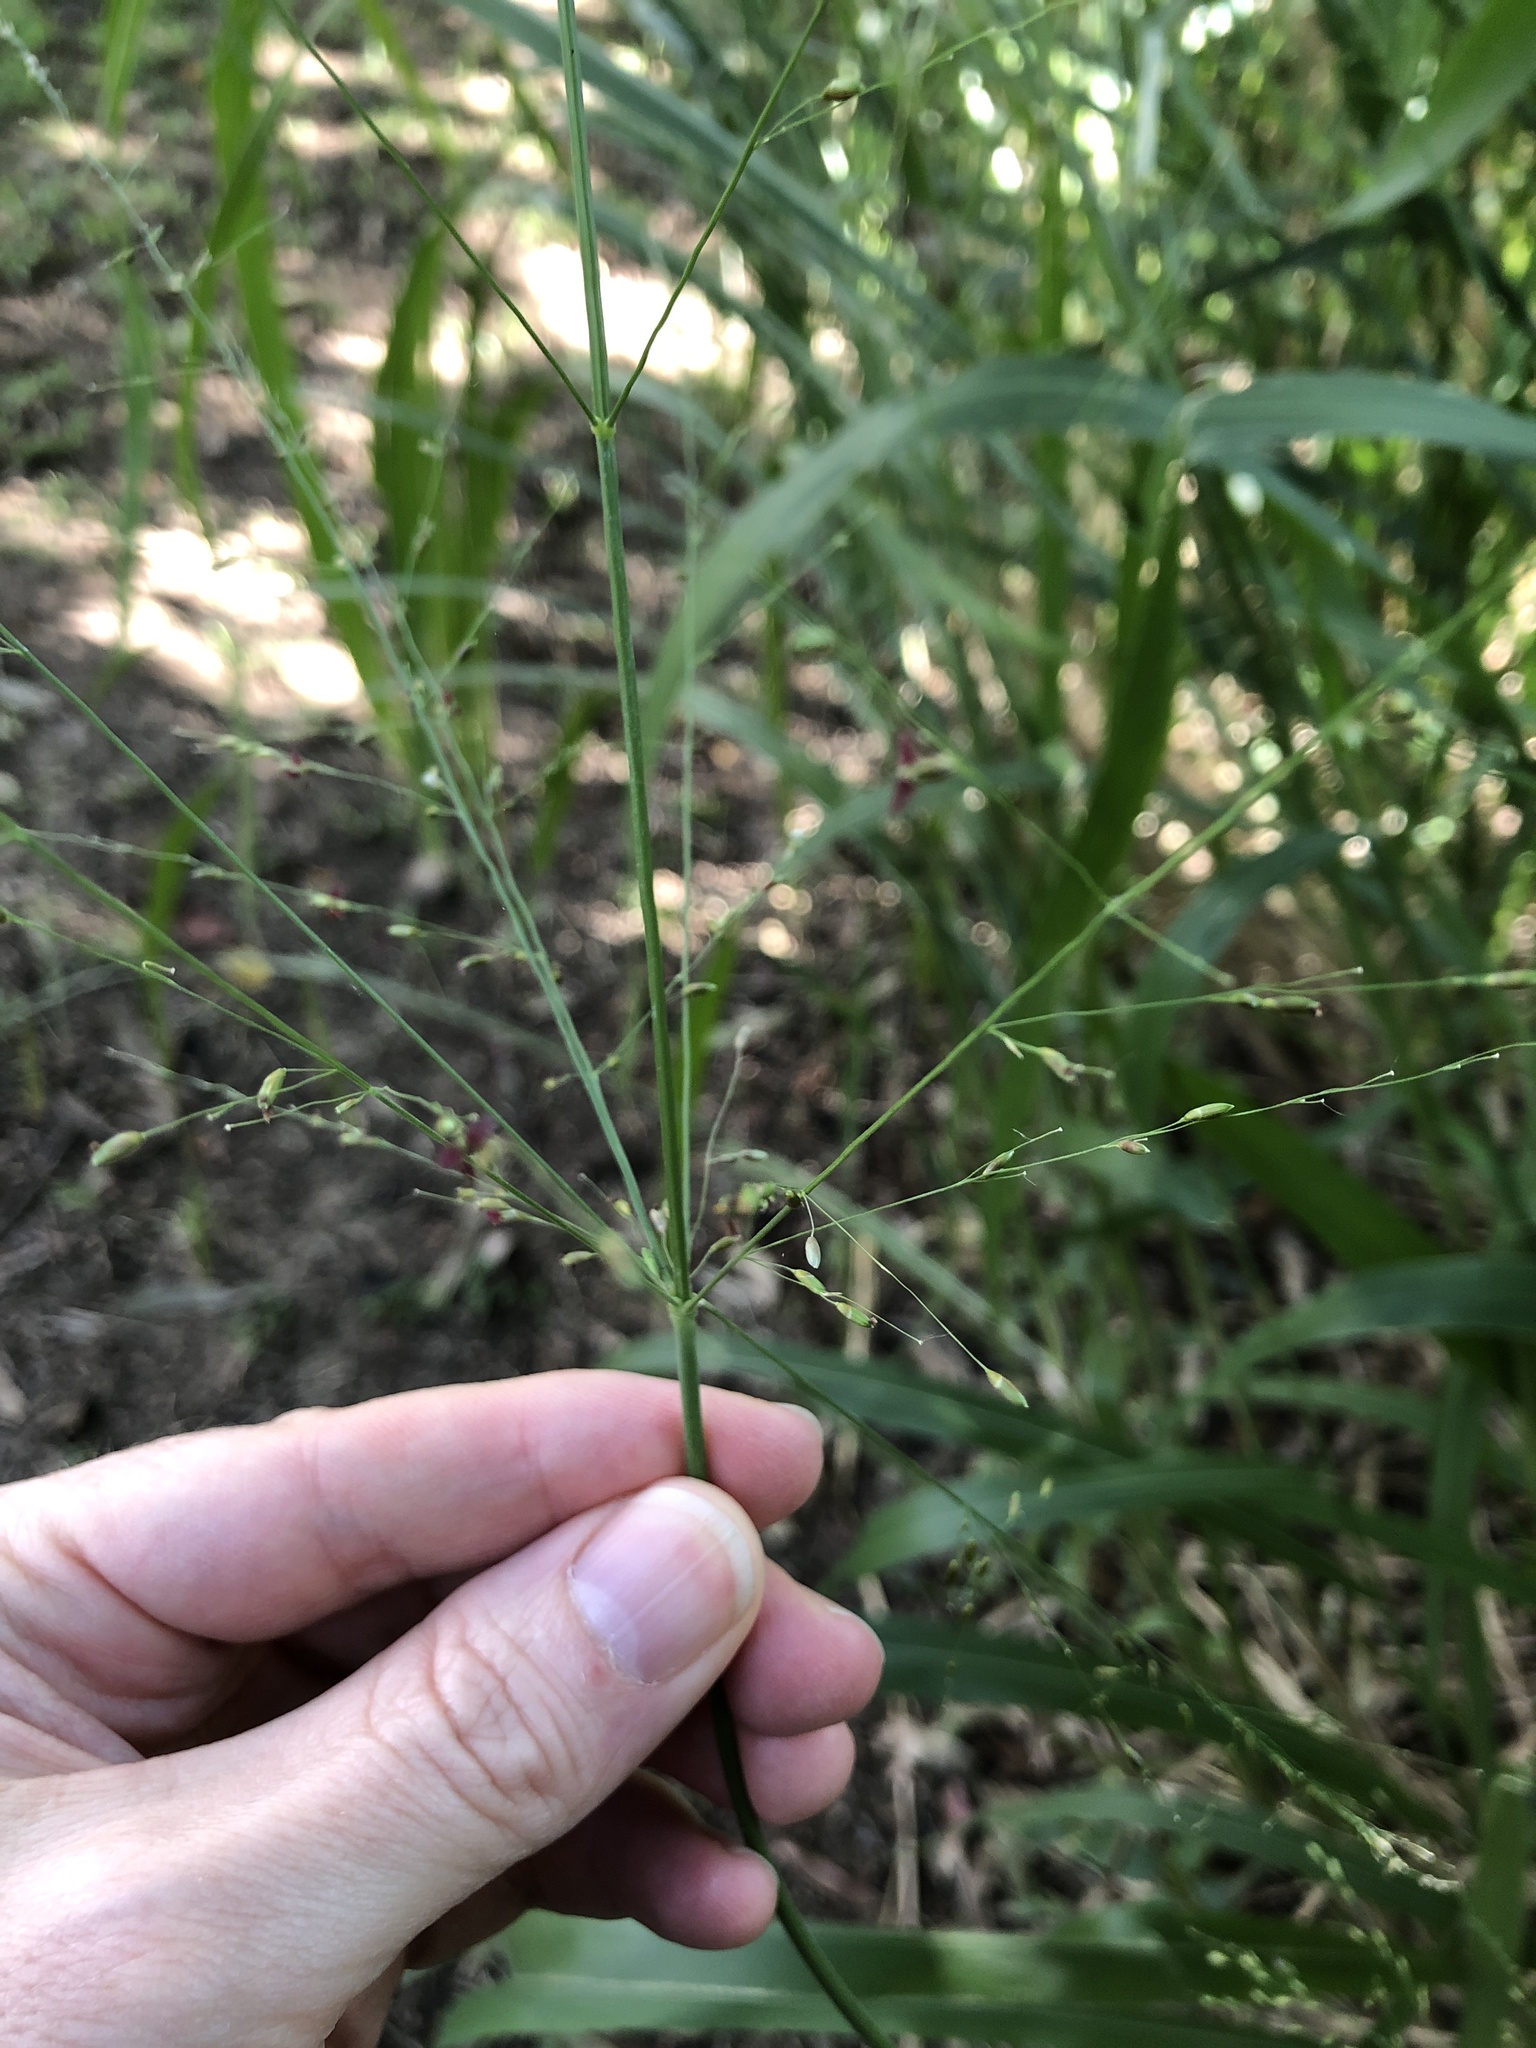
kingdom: Plantae
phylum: Tracheophyta
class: Liliopsida
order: Poales
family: Poaceae
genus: Megathyrsus
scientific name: Megathyrsus maximus
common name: Guineagrass
